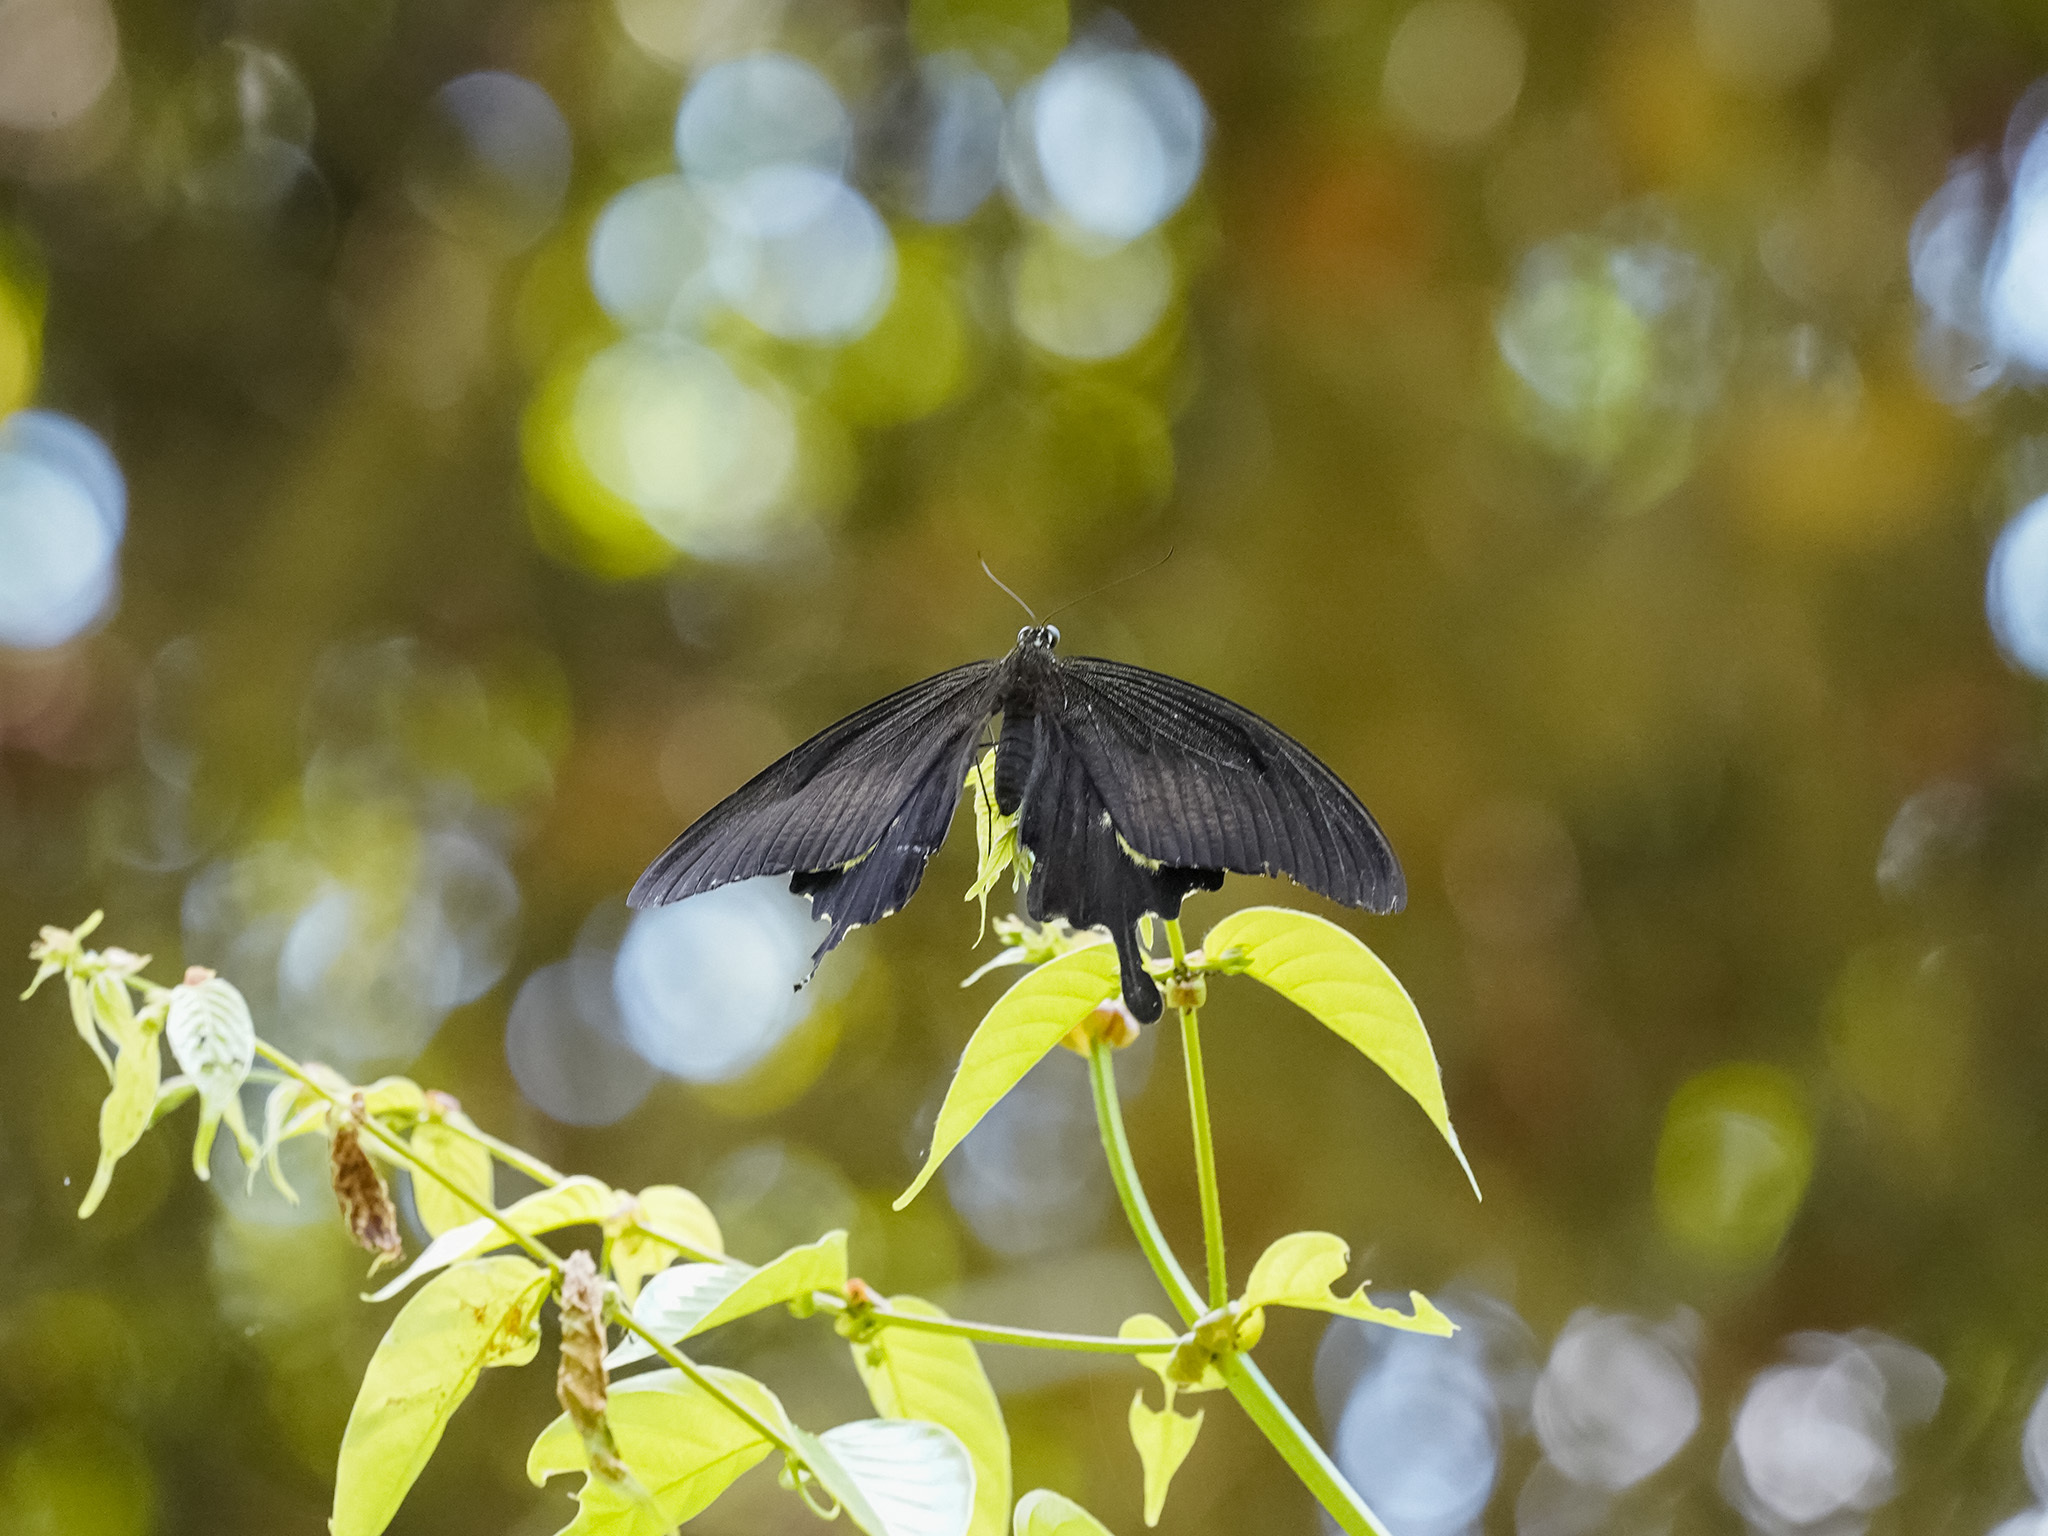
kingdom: Animalia
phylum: Arthropoda
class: Insecta
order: Lepidoptera
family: Papilionidae
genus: Papilio
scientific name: Papilio iswara
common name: Great helen swallowtail
